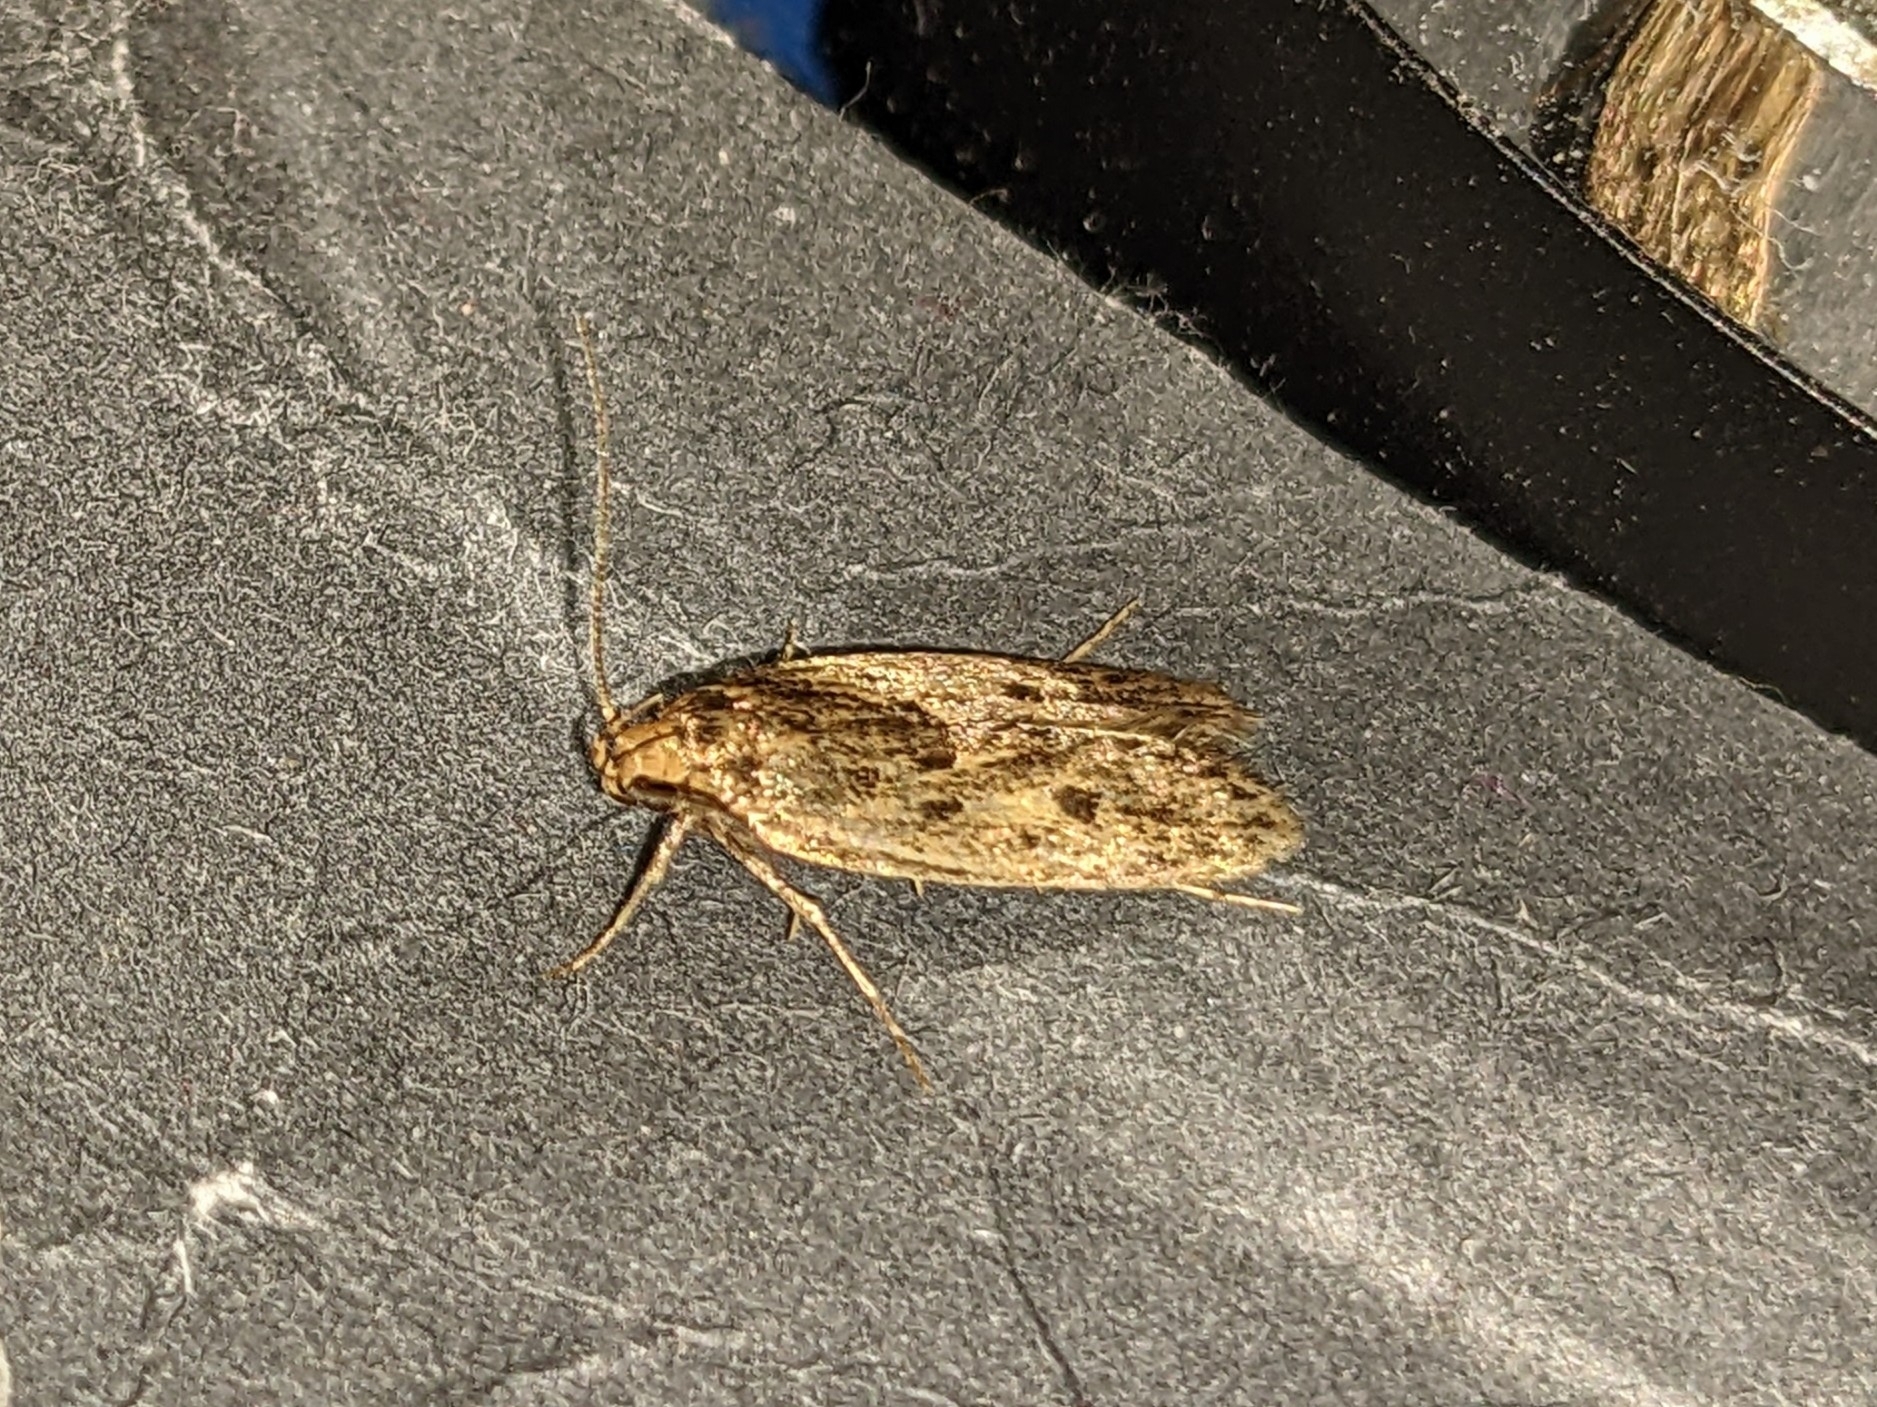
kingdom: Animalia
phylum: Arthropoda
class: Insecta
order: Lepidoptera
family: Oecophoridae
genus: Hofmannophila
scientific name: Hofmannophila pseudospretella
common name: Brown house moth
